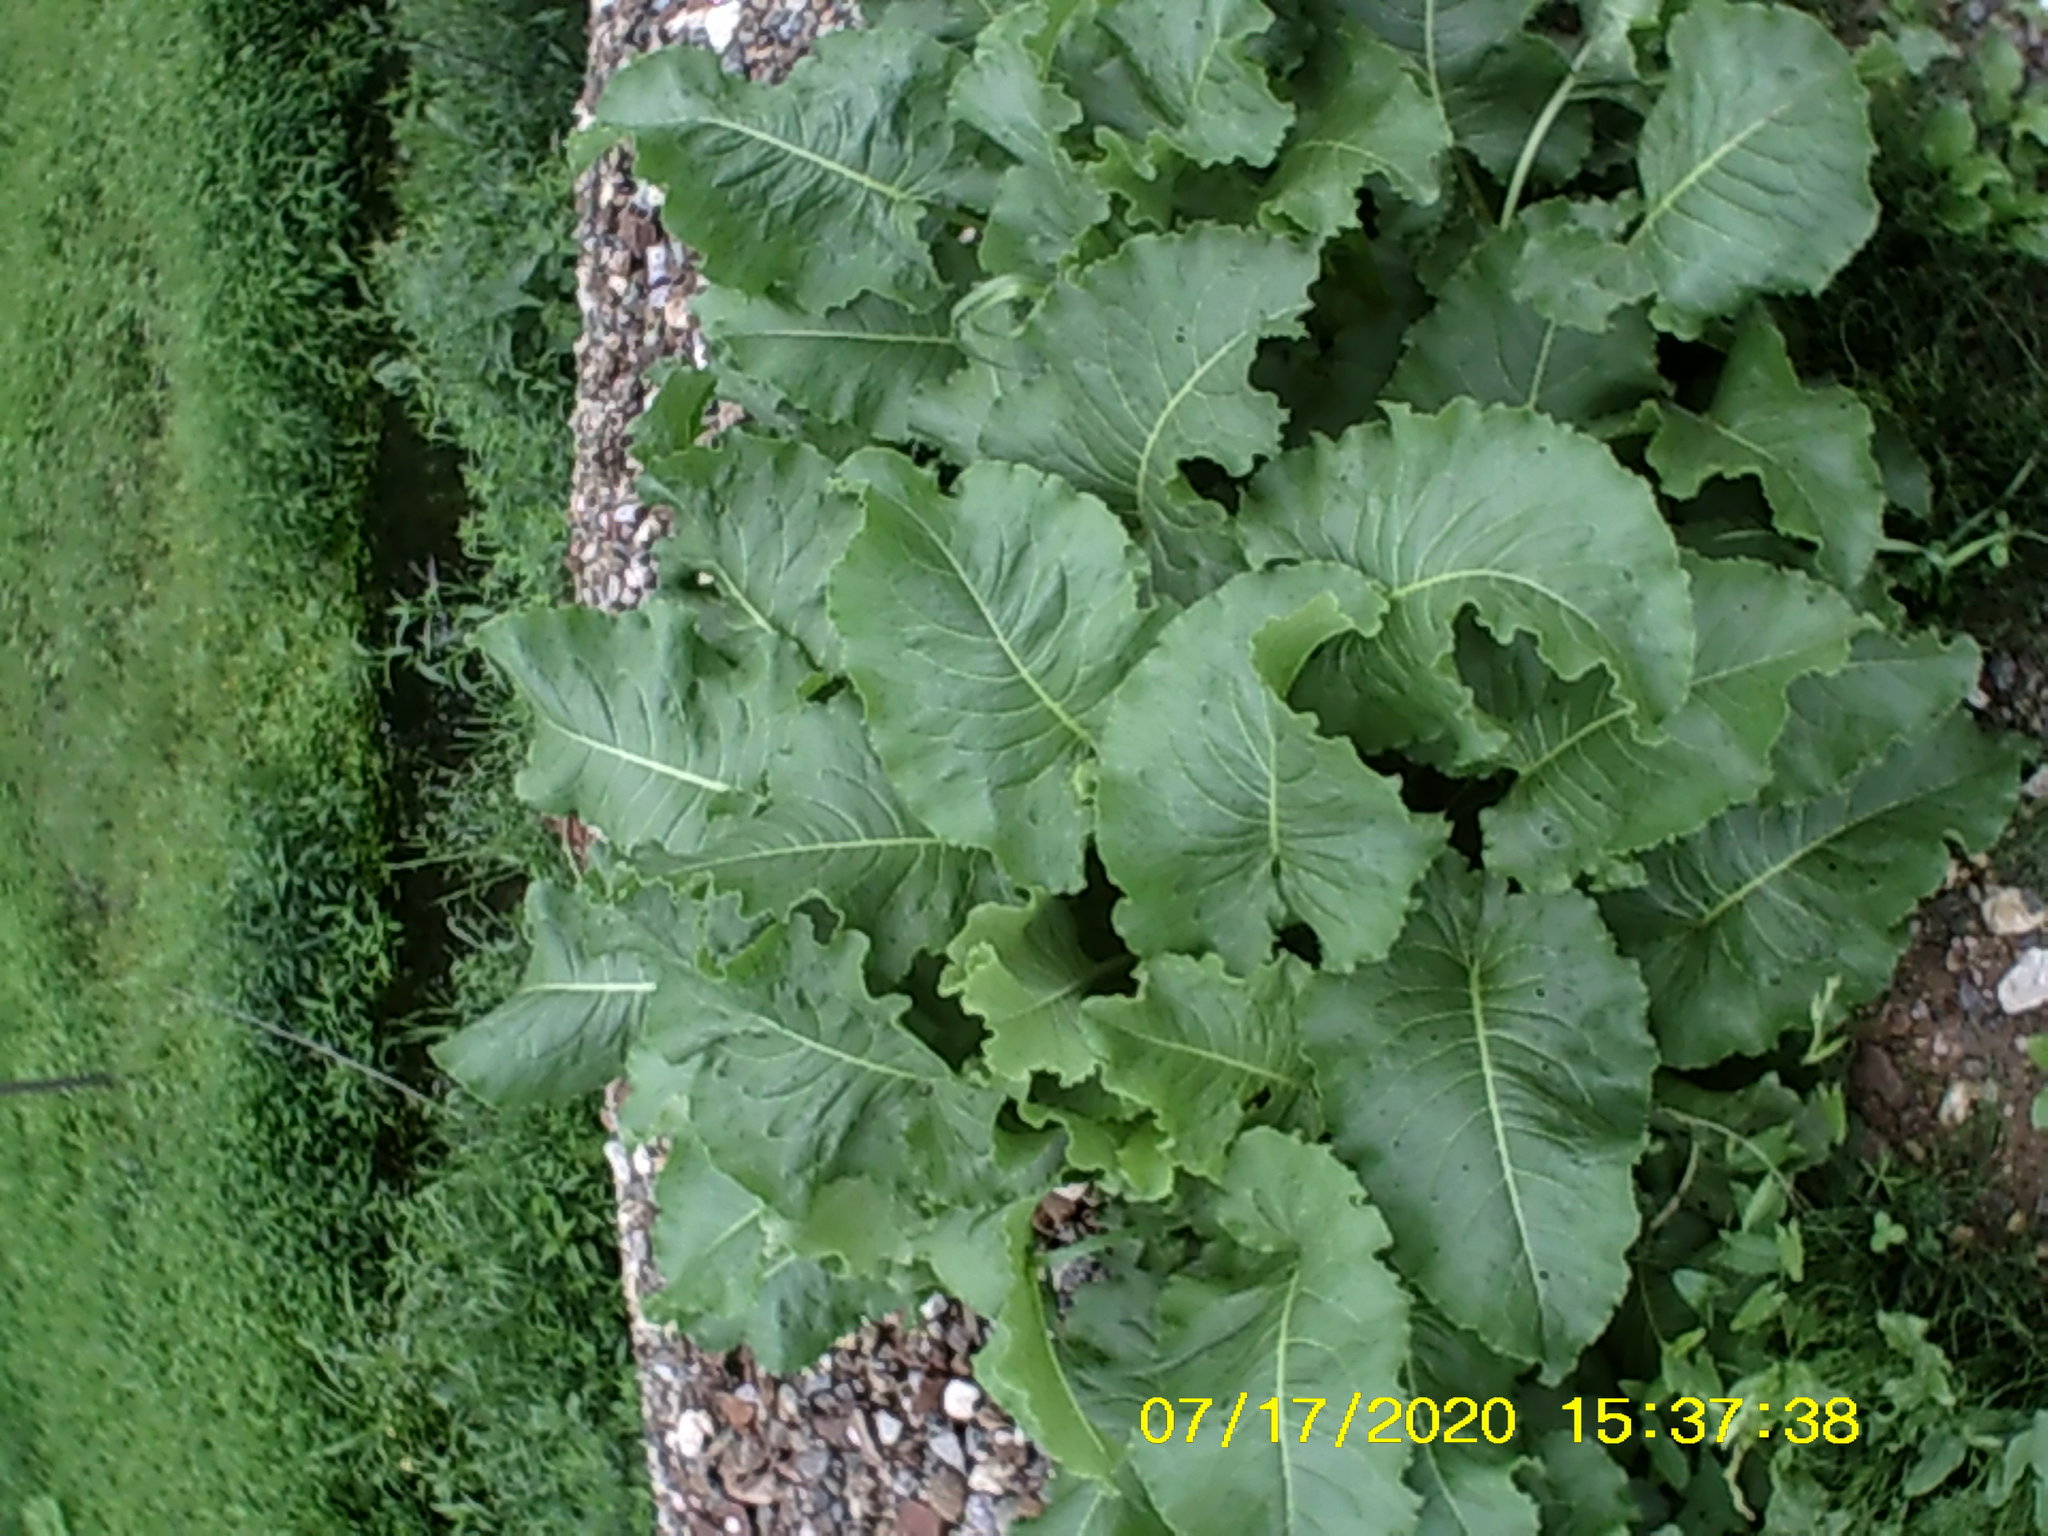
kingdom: Plantae
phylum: Tracheophyta
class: Magnoliopsida
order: Caryophyllales
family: Polygonaceae
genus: Rumex
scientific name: Rumex confertus
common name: Russian dock
